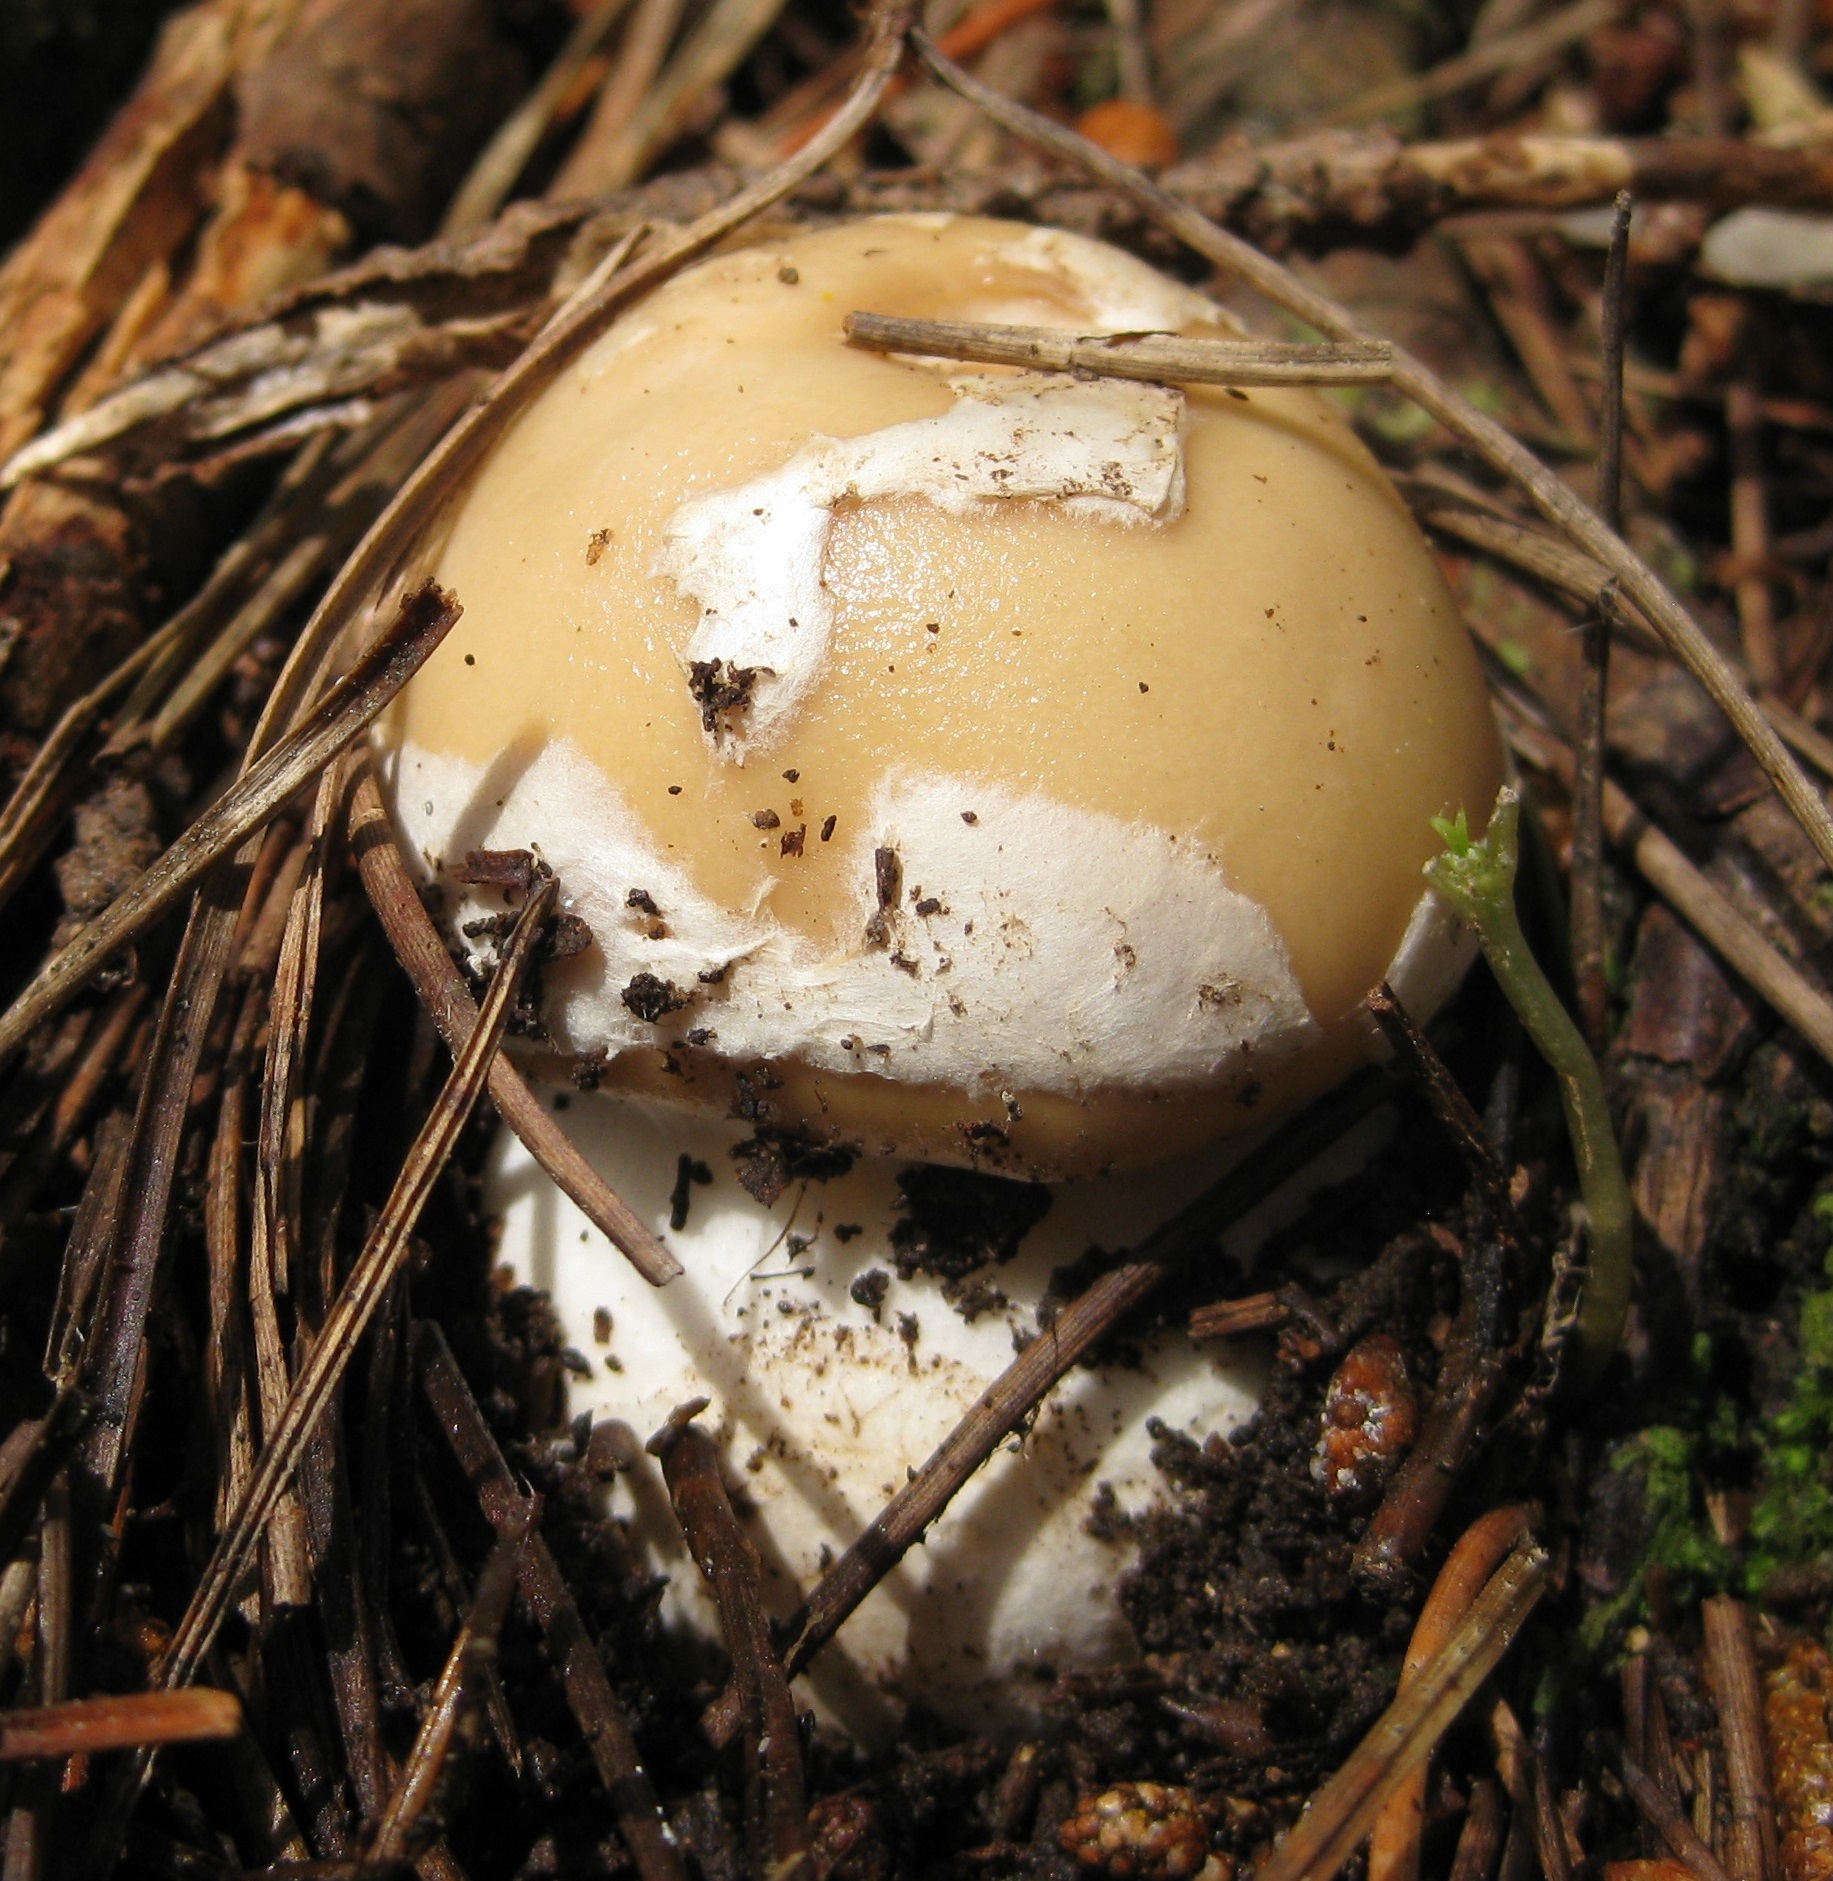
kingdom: Fungi
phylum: Basidiomycota
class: Agaricomycetes
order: Agaricales
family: Amanitaceae
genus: Amanita
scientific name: Amanita gemmata
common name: Jewelled amanita
